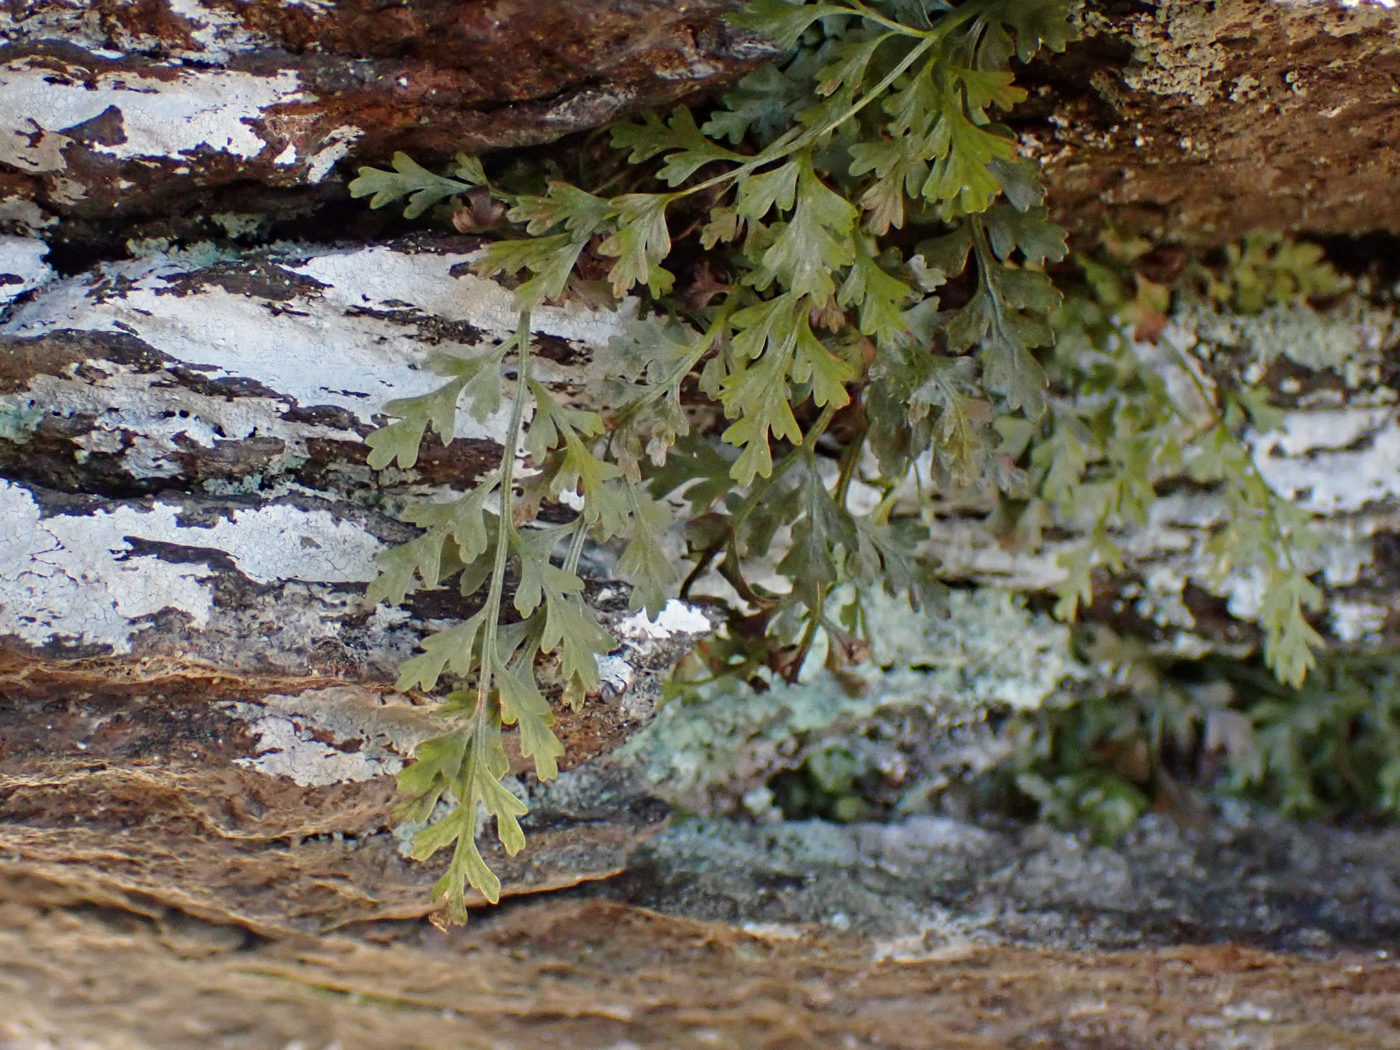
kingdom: Plantae
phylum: Tracheophyta
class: Polypodiopsida
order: Polypodiales
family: Aspleniaceae
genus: Asplenium
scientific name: Asplenium montanum
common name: Mountain spleenwort
